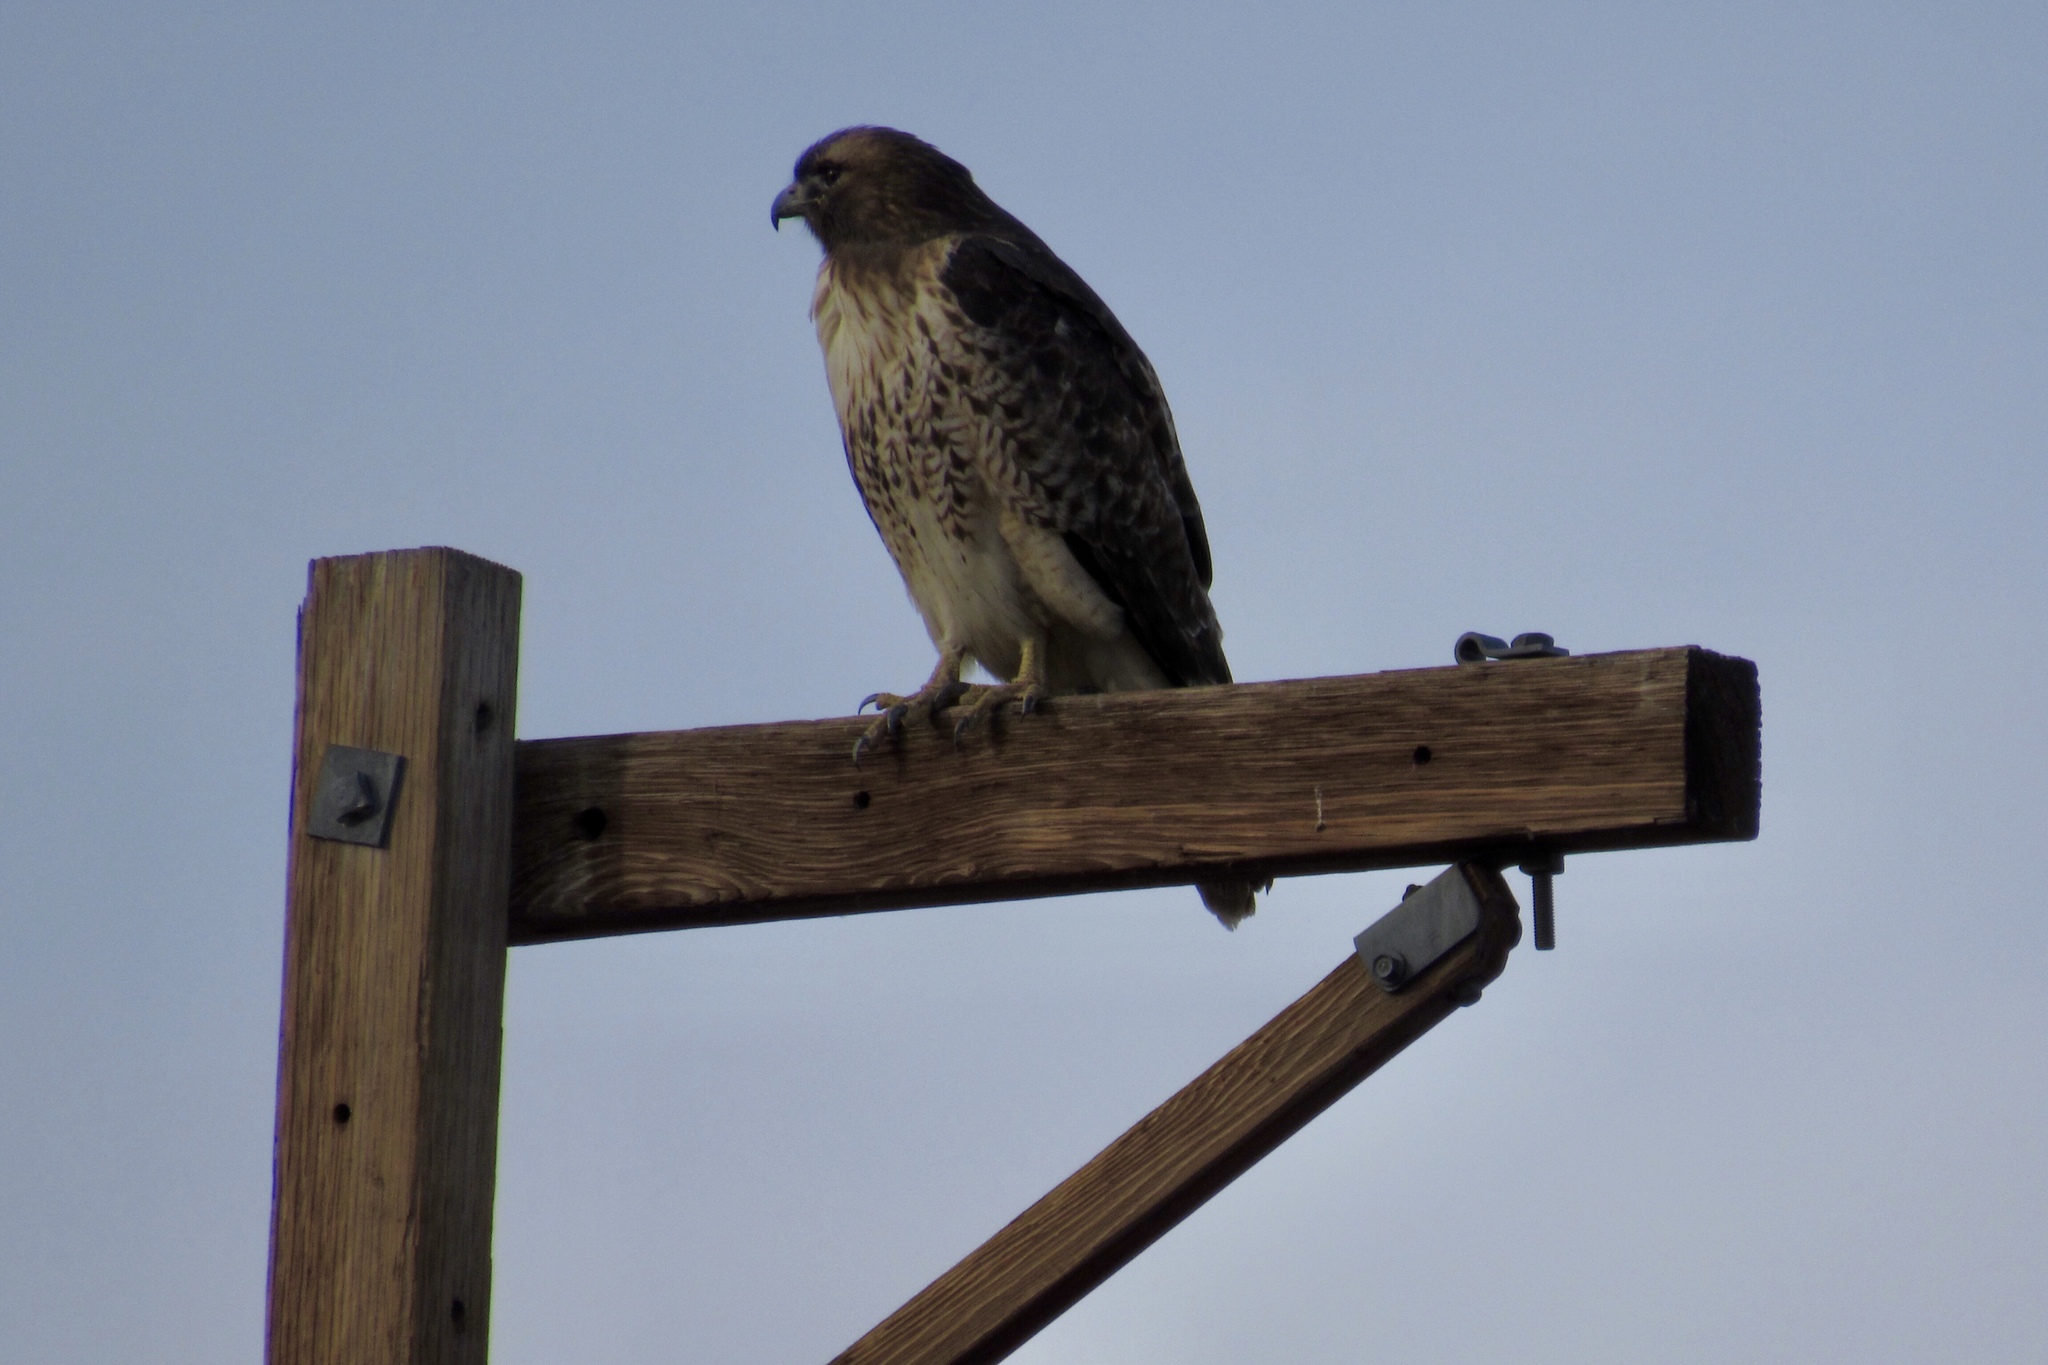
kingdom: Animalia
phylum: Chordata
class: Aves
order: Accipitriformes
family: Accipitridae
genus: Buteo
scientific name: Buteo jamaicensis
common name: Red-tailed hawk
